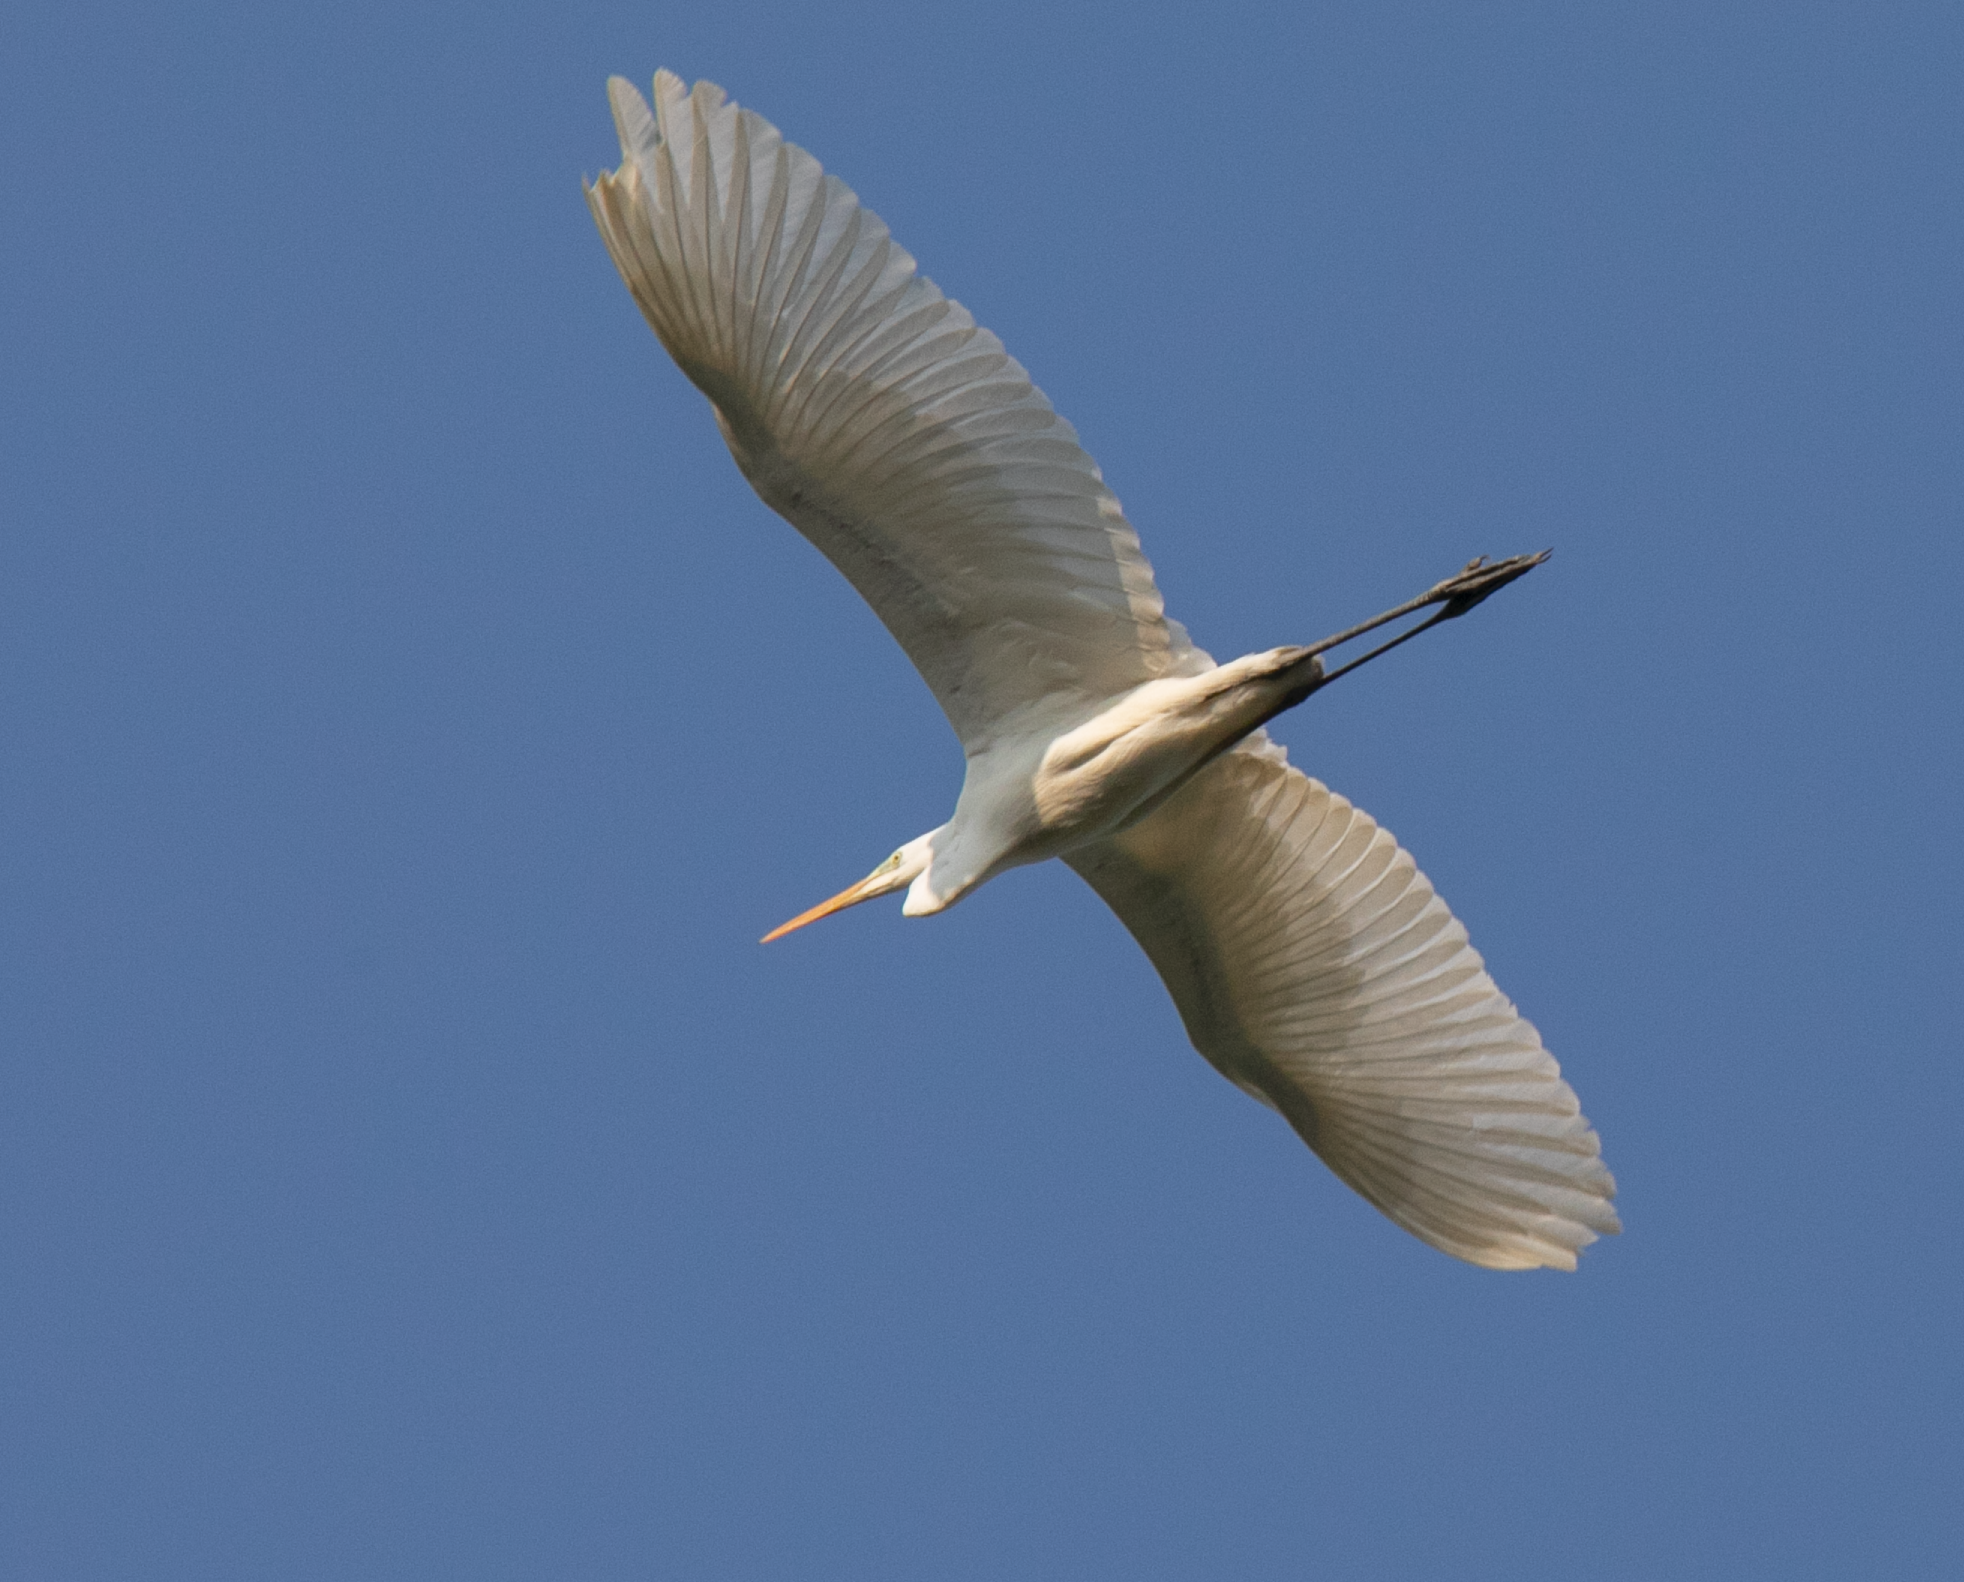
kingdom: Animalia
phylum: Chordata
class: Aves
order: Pelecaniformes
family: Ardeidae
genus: Ardea
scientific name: Ardea alba
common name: Great egret
